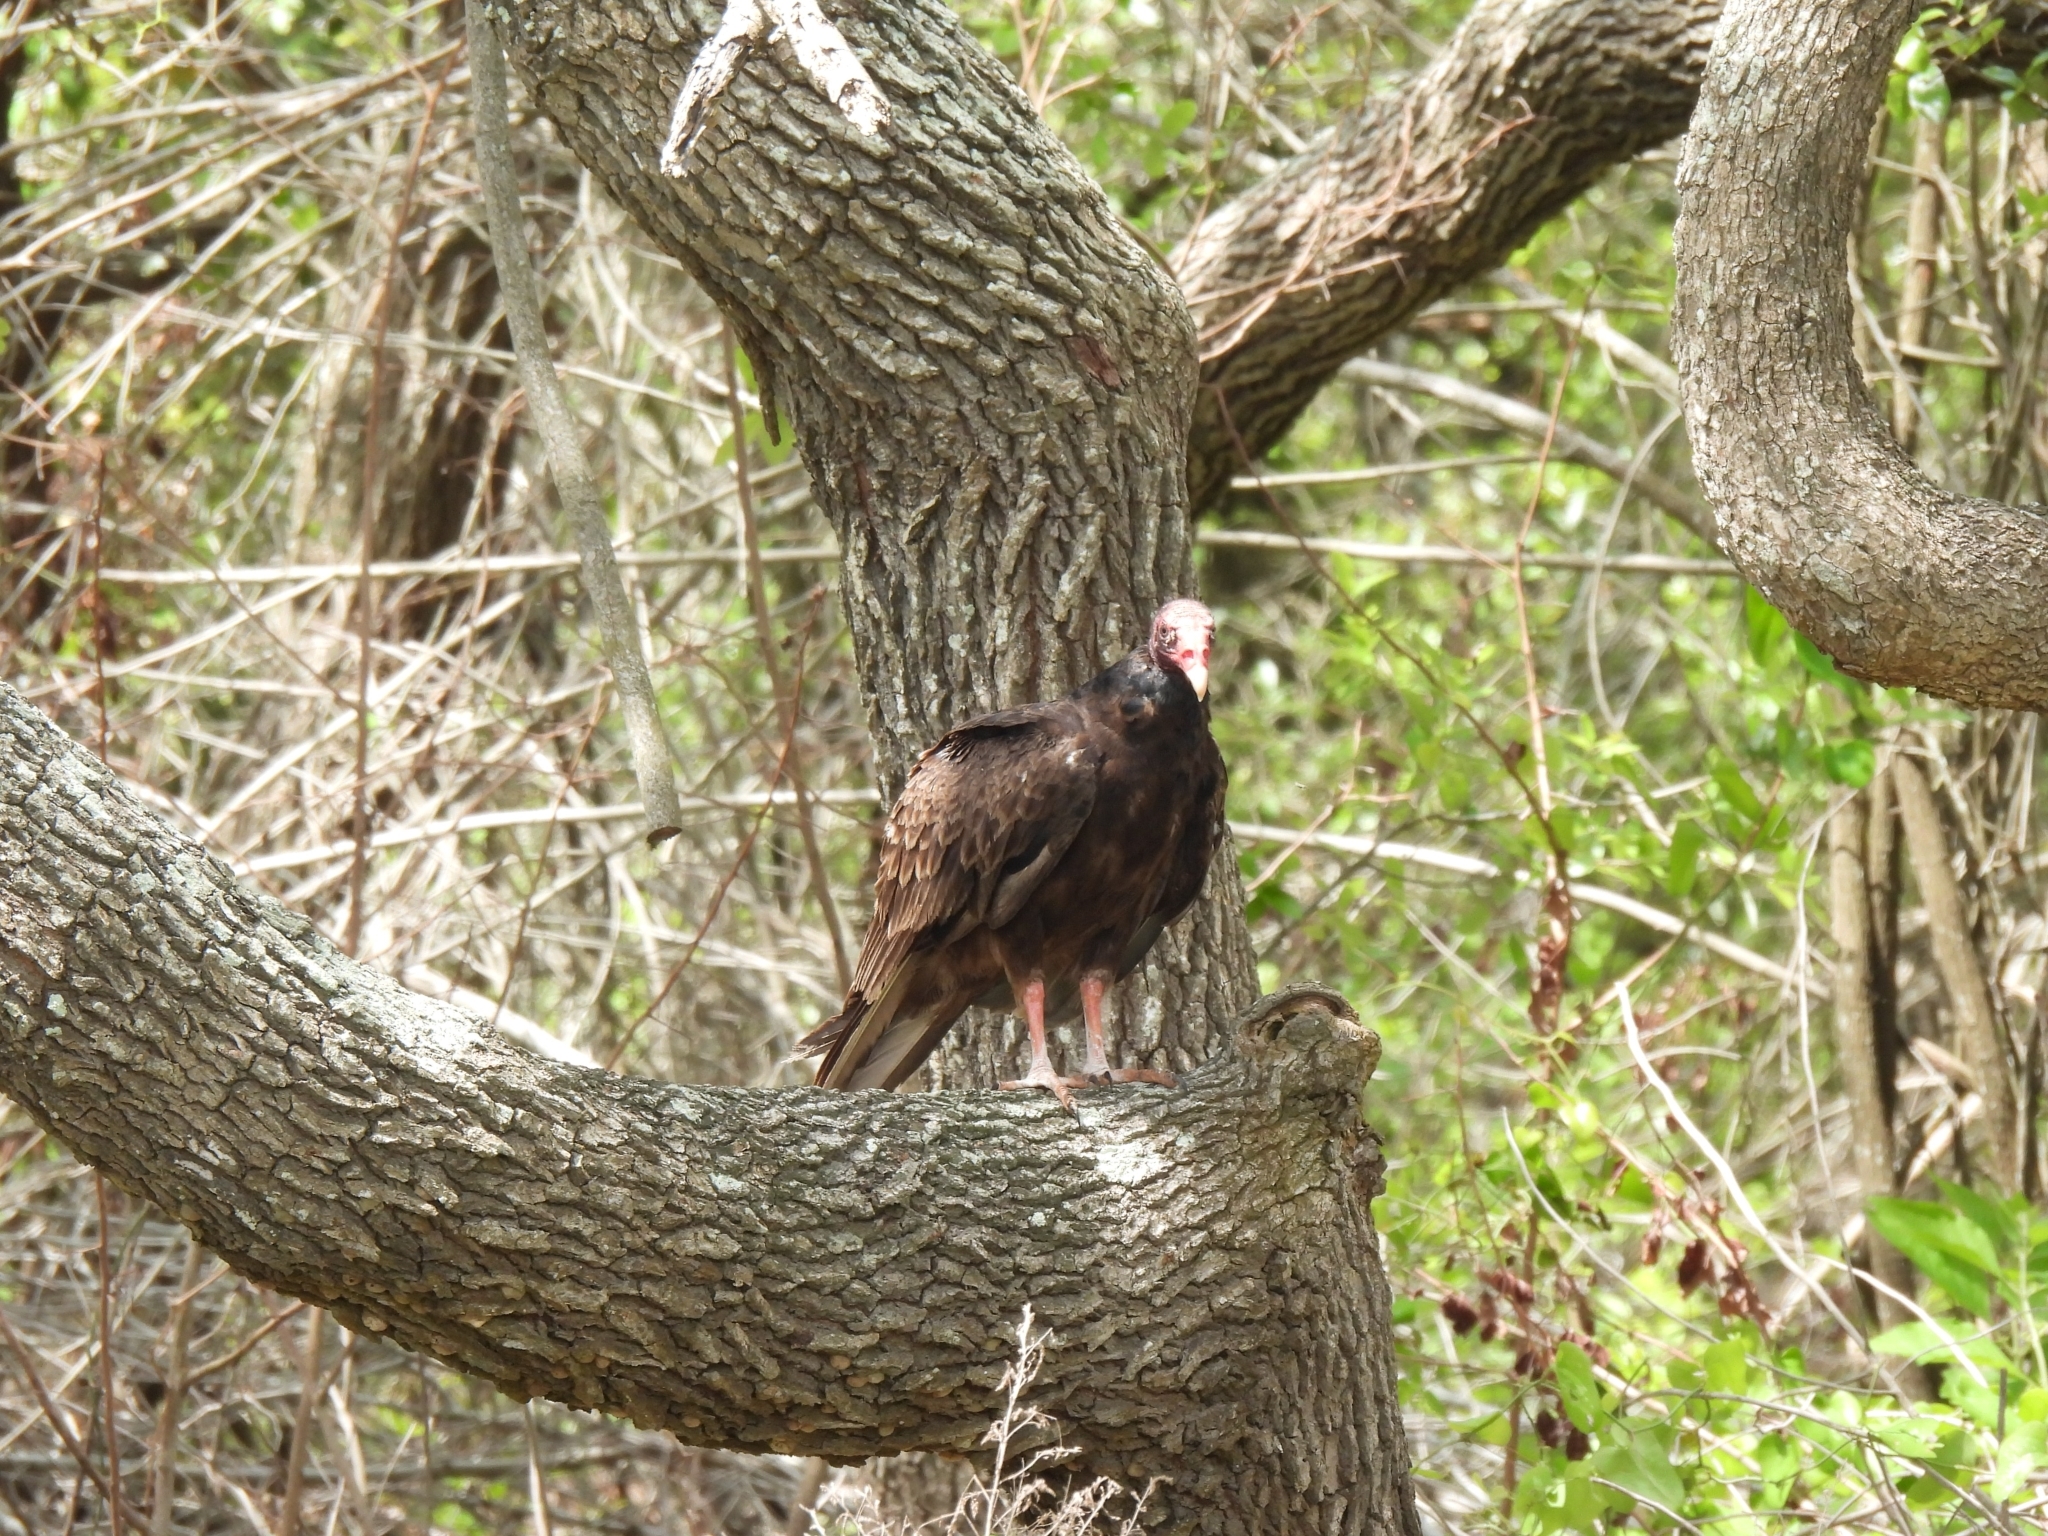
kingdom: Animalia
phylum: Chordata
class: Aves
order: Accipitriformes
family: Cathartidae
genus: Cathartes
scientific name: Cathartes aura
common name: Turkey vulture
